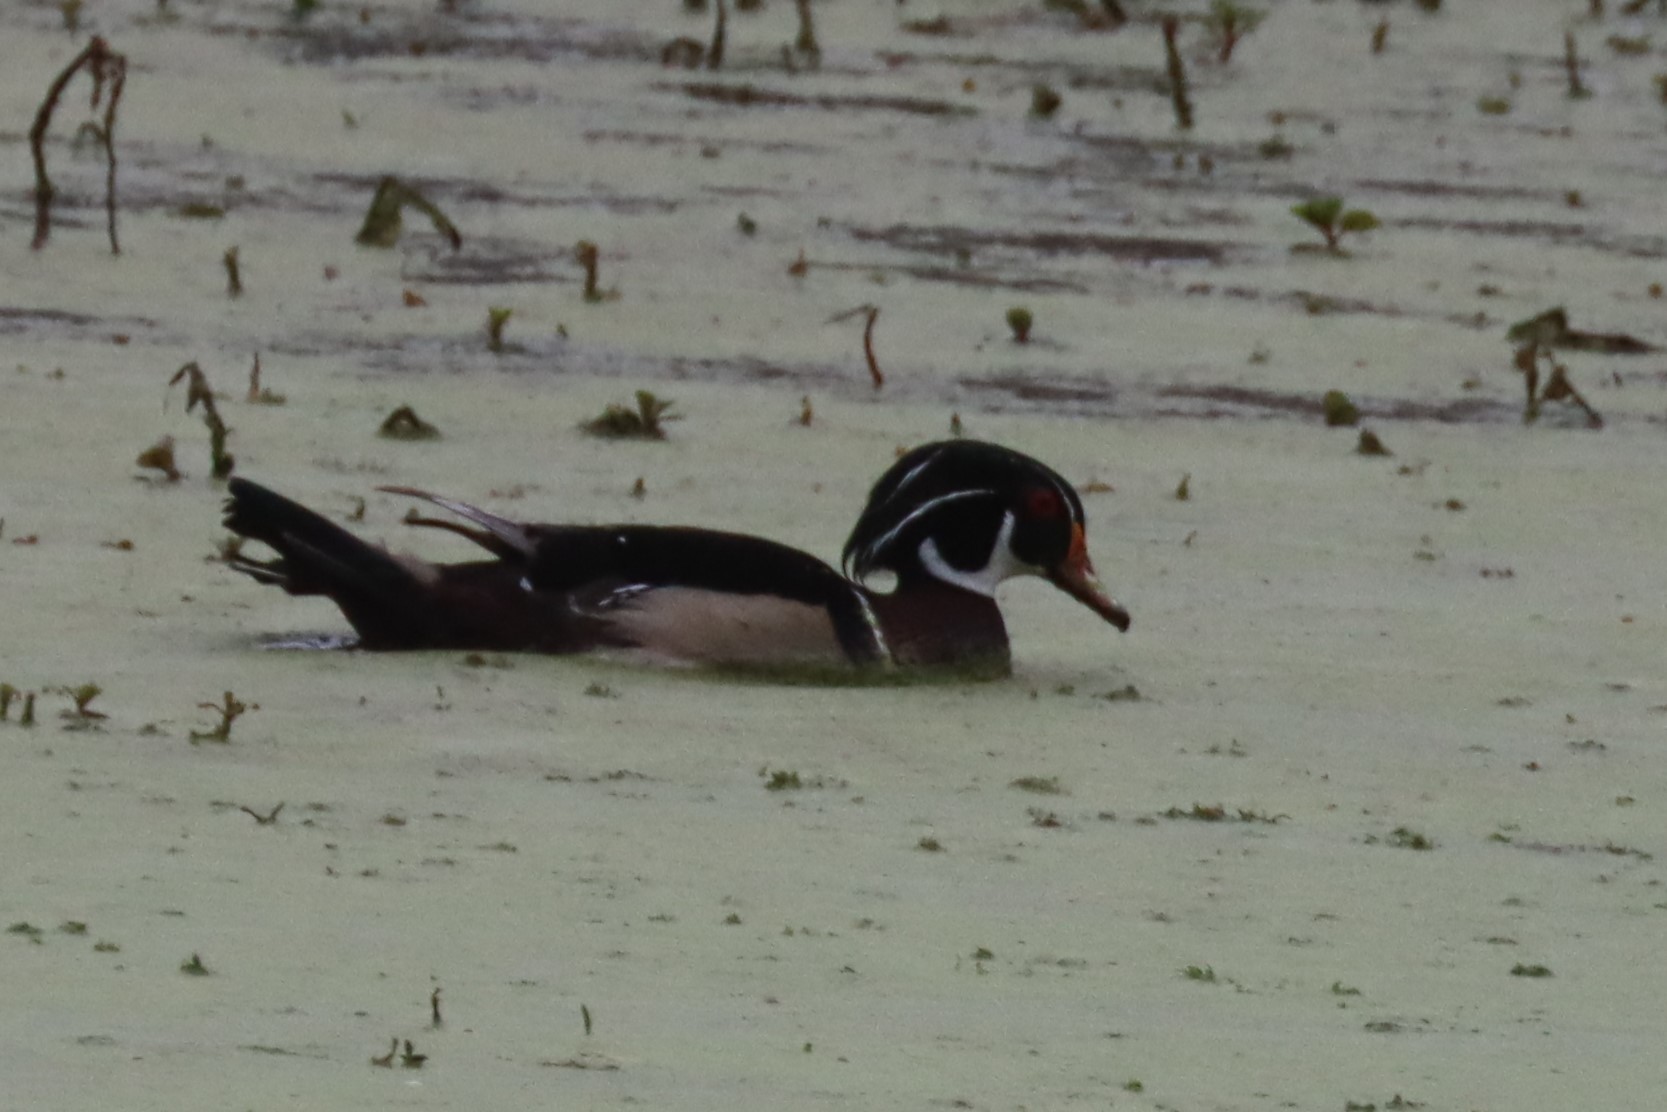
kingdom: Animalia
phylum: Chordata
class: Aves
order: Anseriformes
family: Anatidae
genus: Aix
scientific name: Aix sponsa
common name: Wood duck
